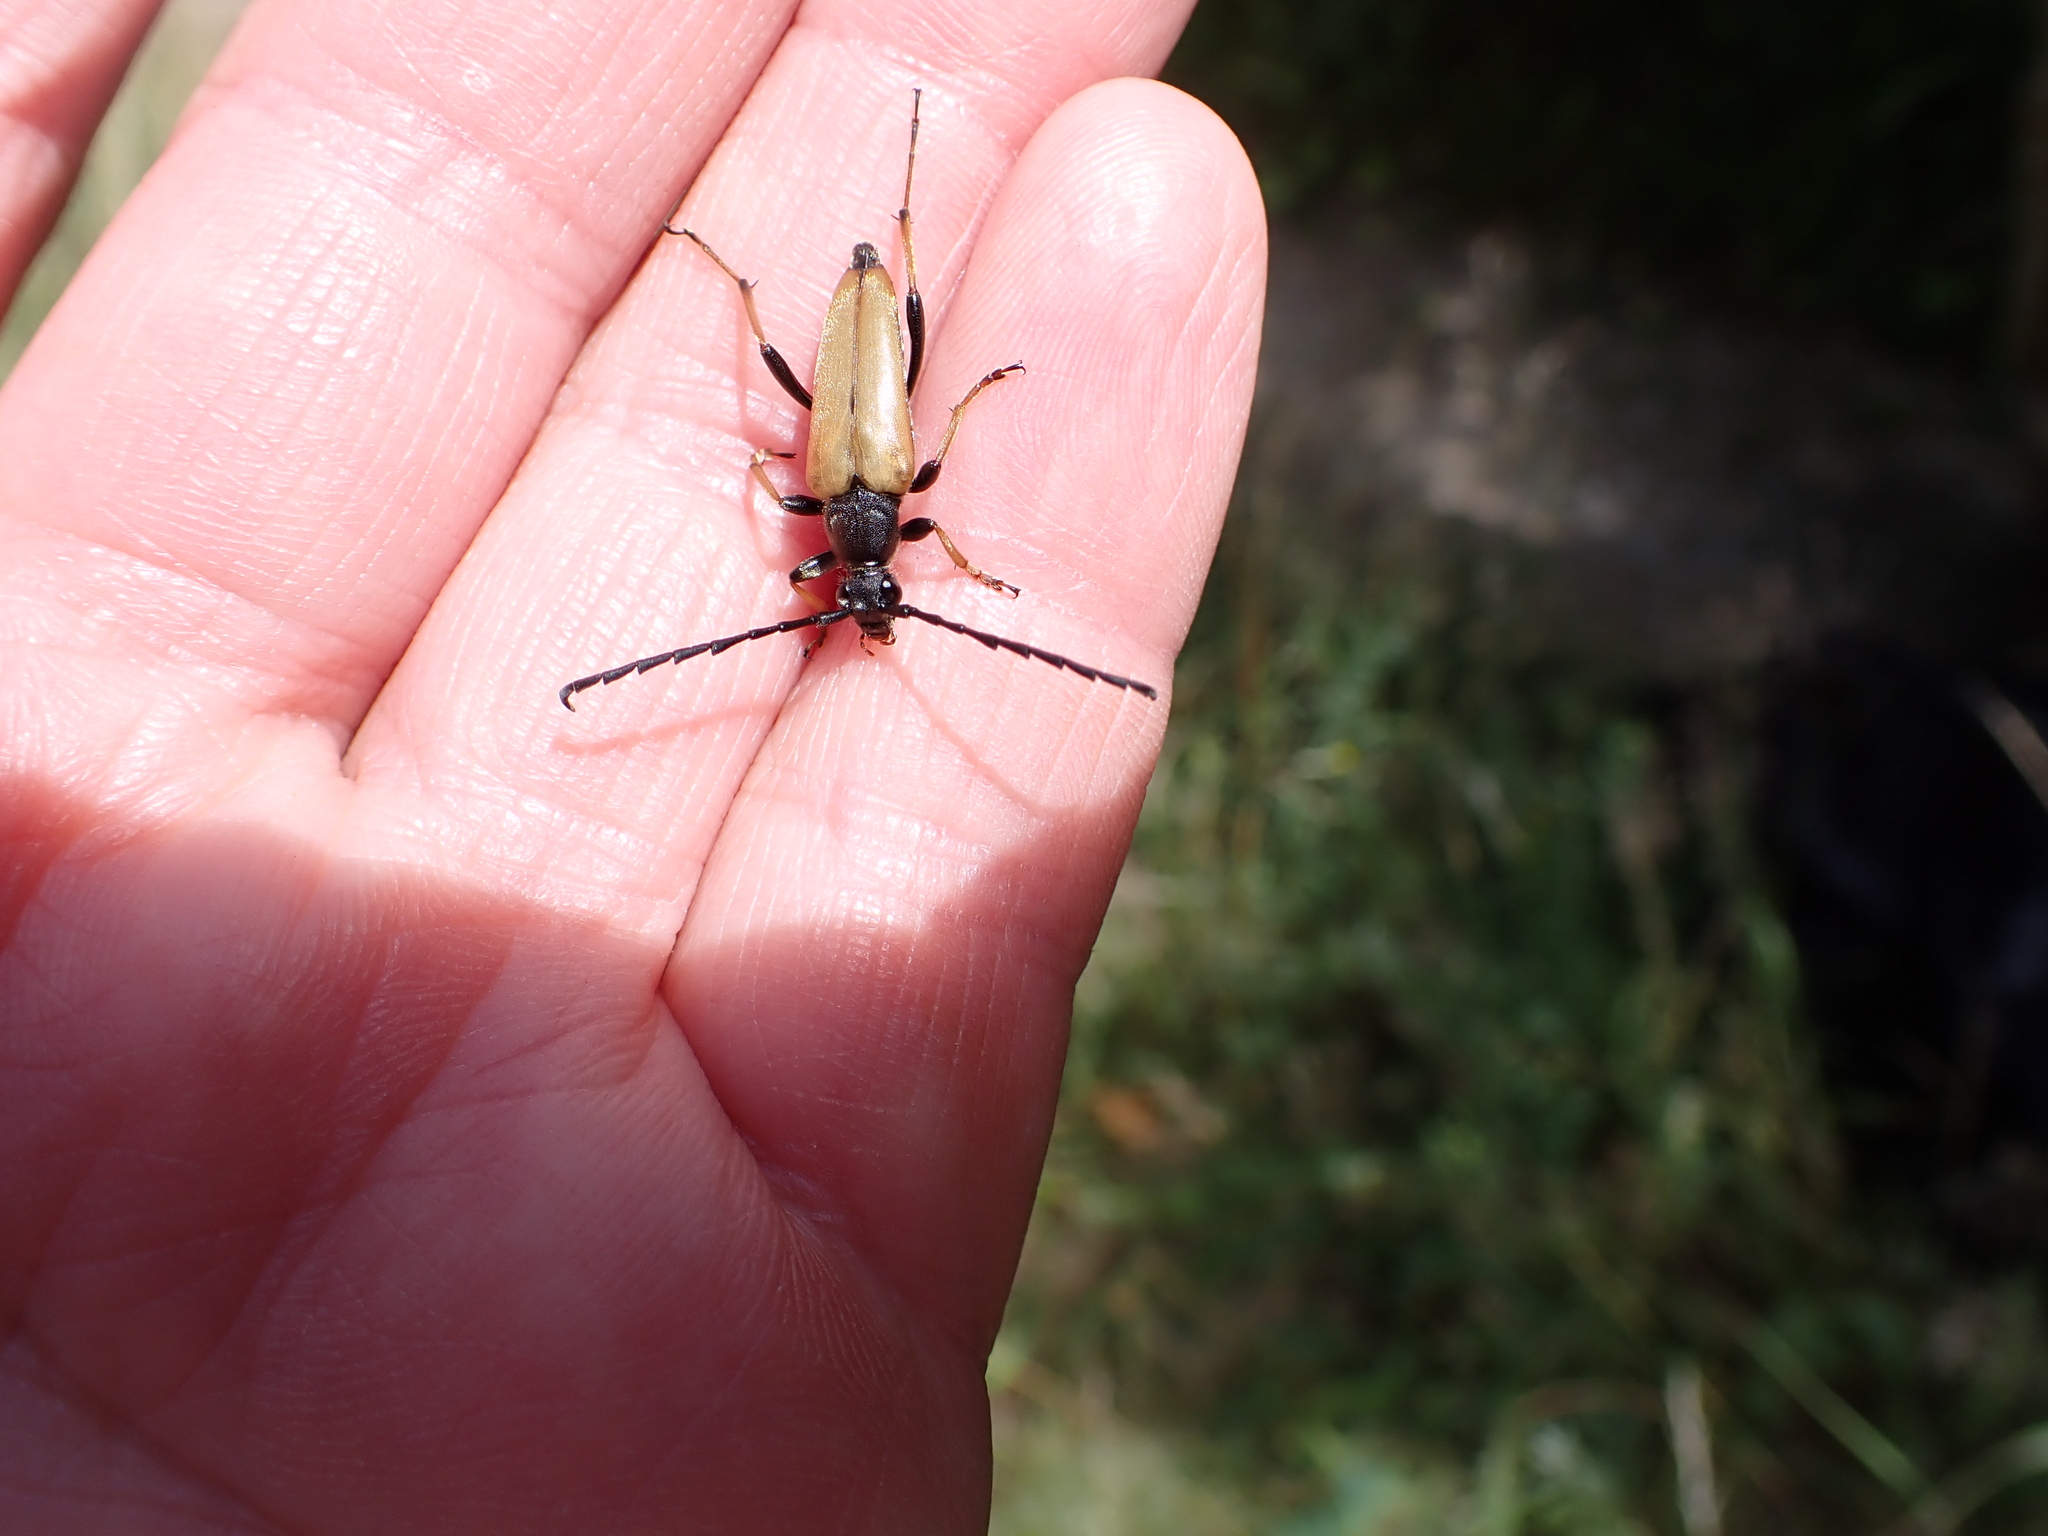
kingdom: Animalia
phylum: Arthropoda
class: Insecta
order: Coleoptera
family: Cerambycidae
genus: Stictoleptura
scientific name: Stictoleptura rubra
